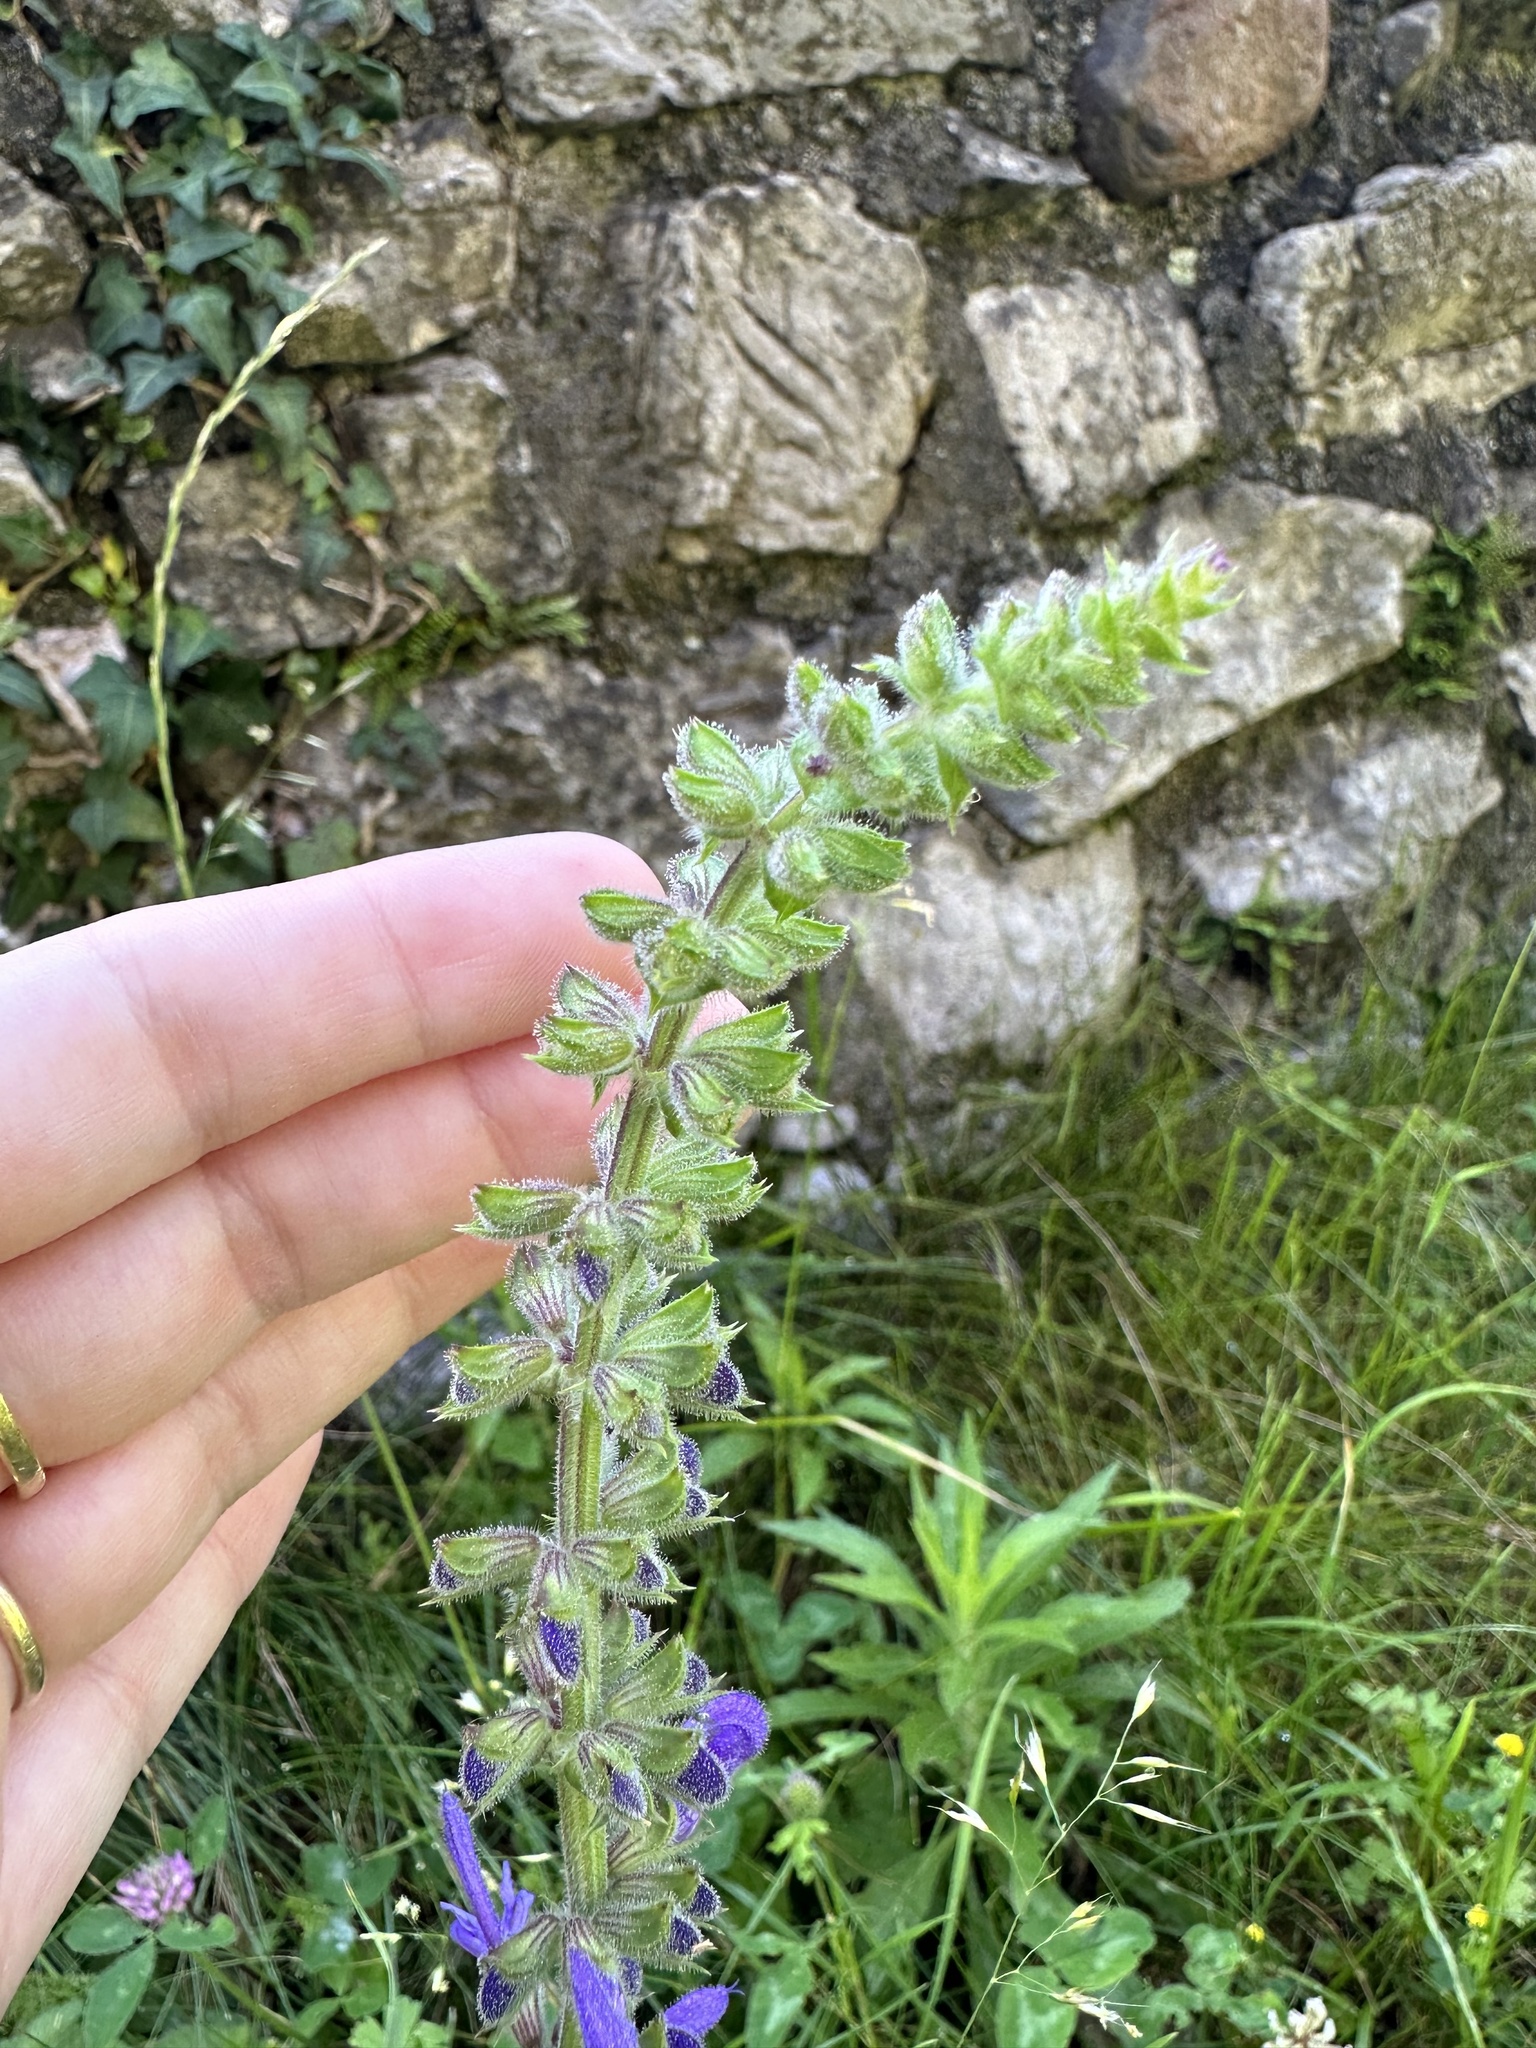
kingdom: Plantae
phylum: Tracheophyta
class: Magnoliopsida
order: Lamiales
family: Lamiaceae
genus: Salvia
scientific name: Salvia pratensis
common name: Meadow sage
